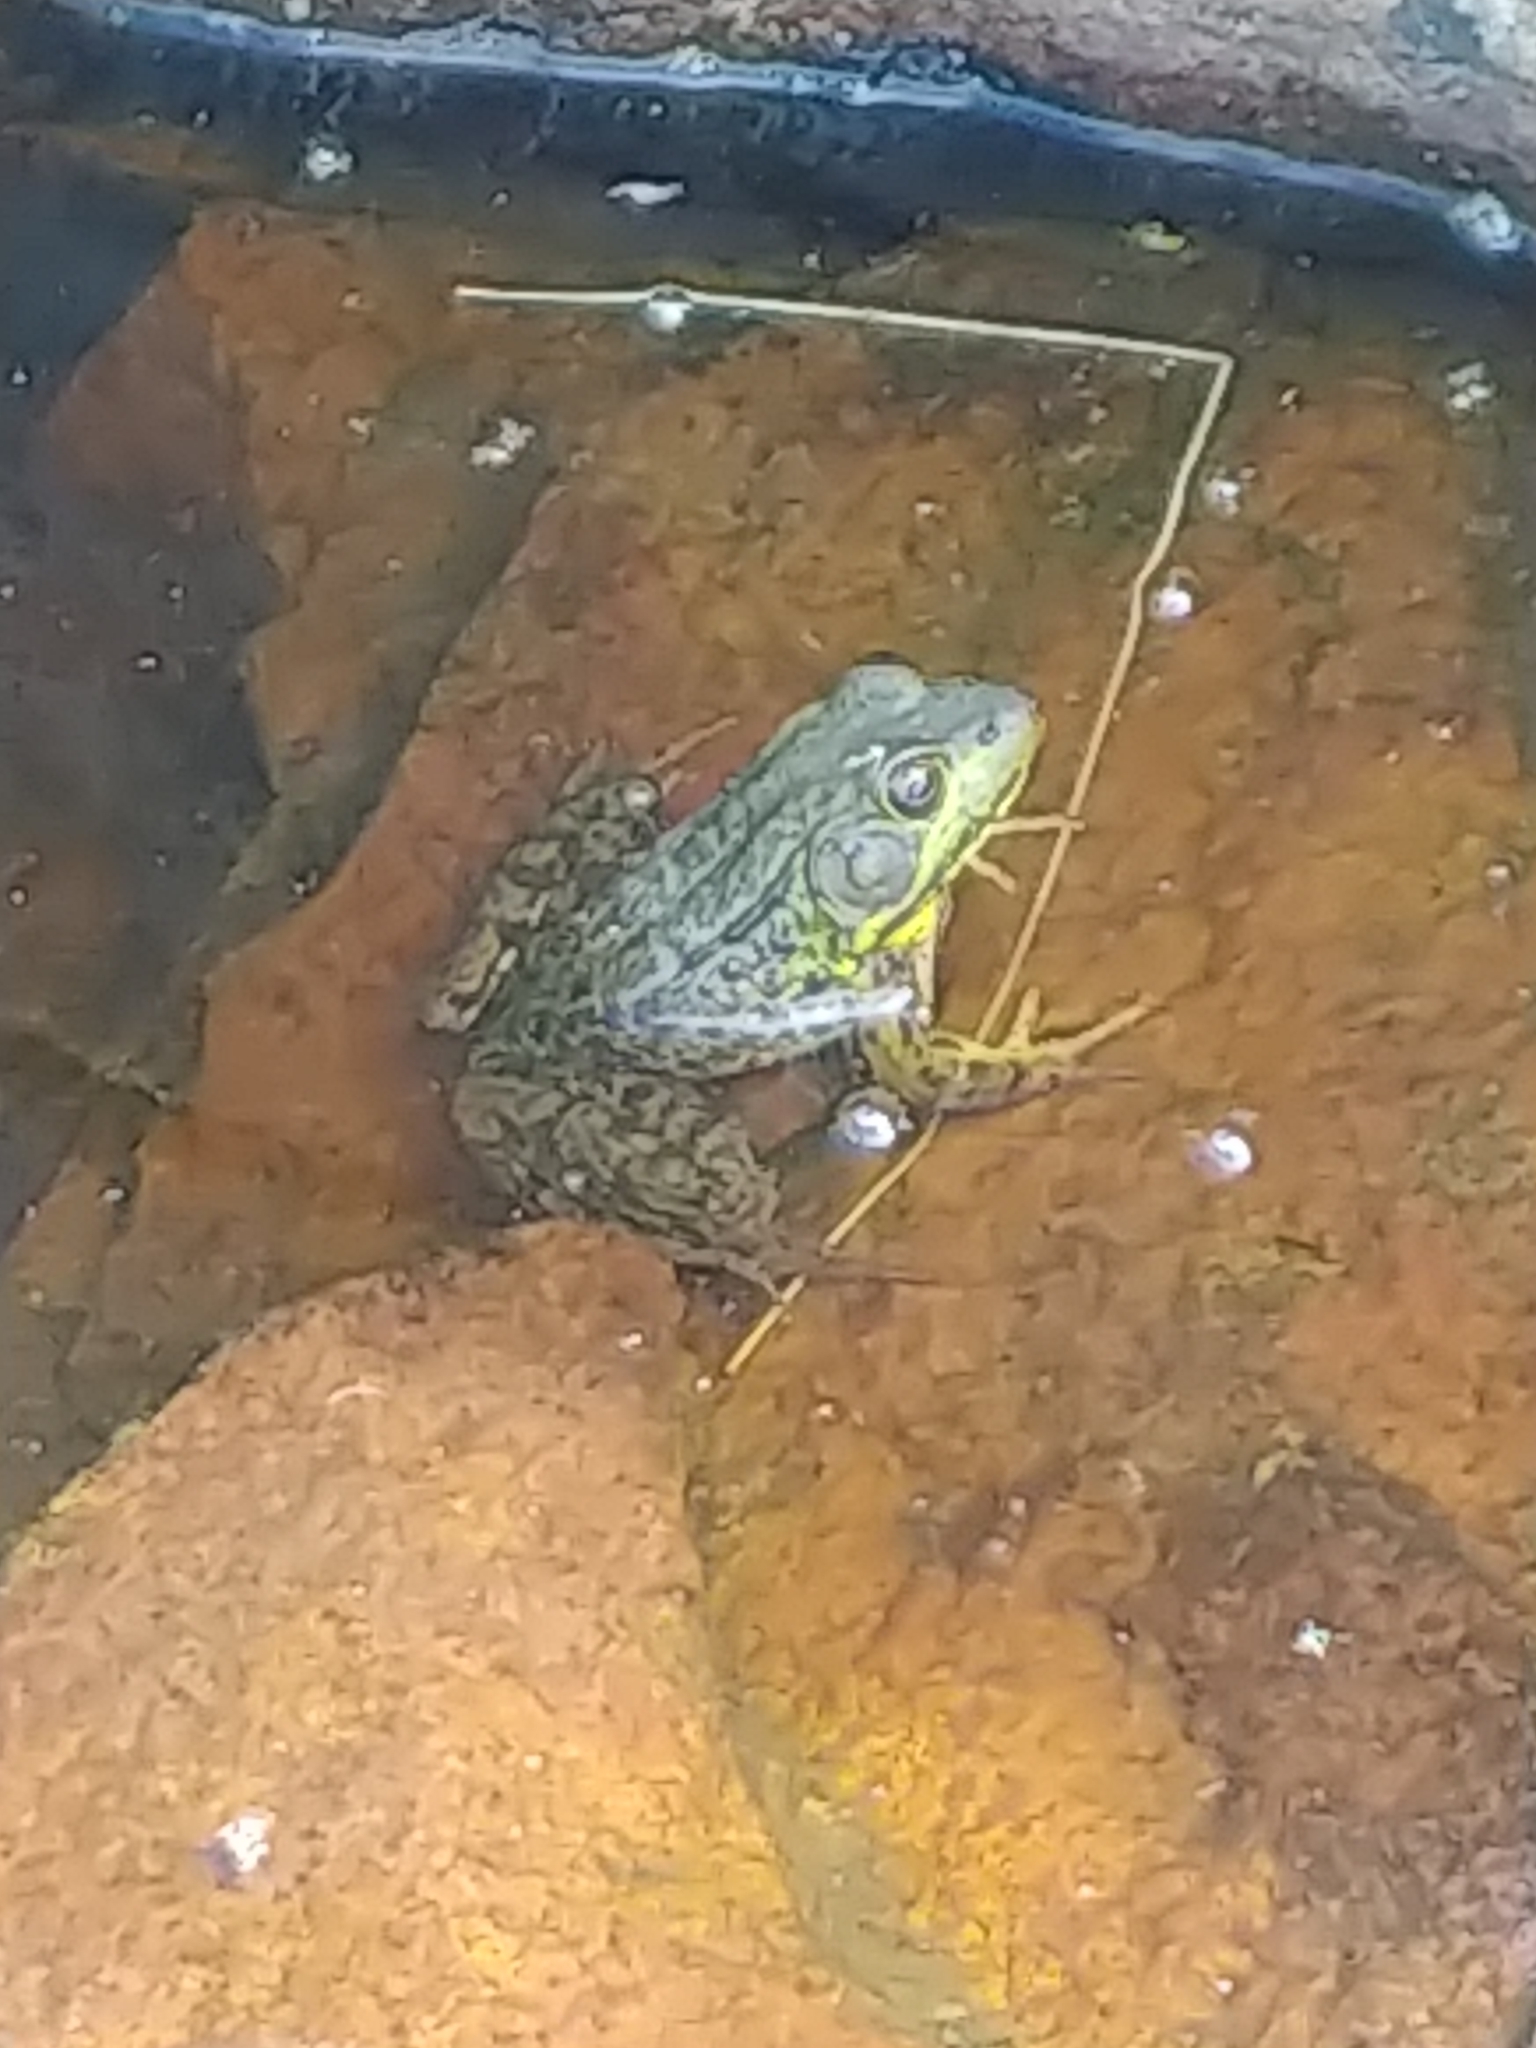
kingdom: Animalia
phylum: Chordata
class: Amphibia
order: Anura
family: Ranidae
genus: Lithobates
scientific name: Lithobates clamitans
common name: Green frog
